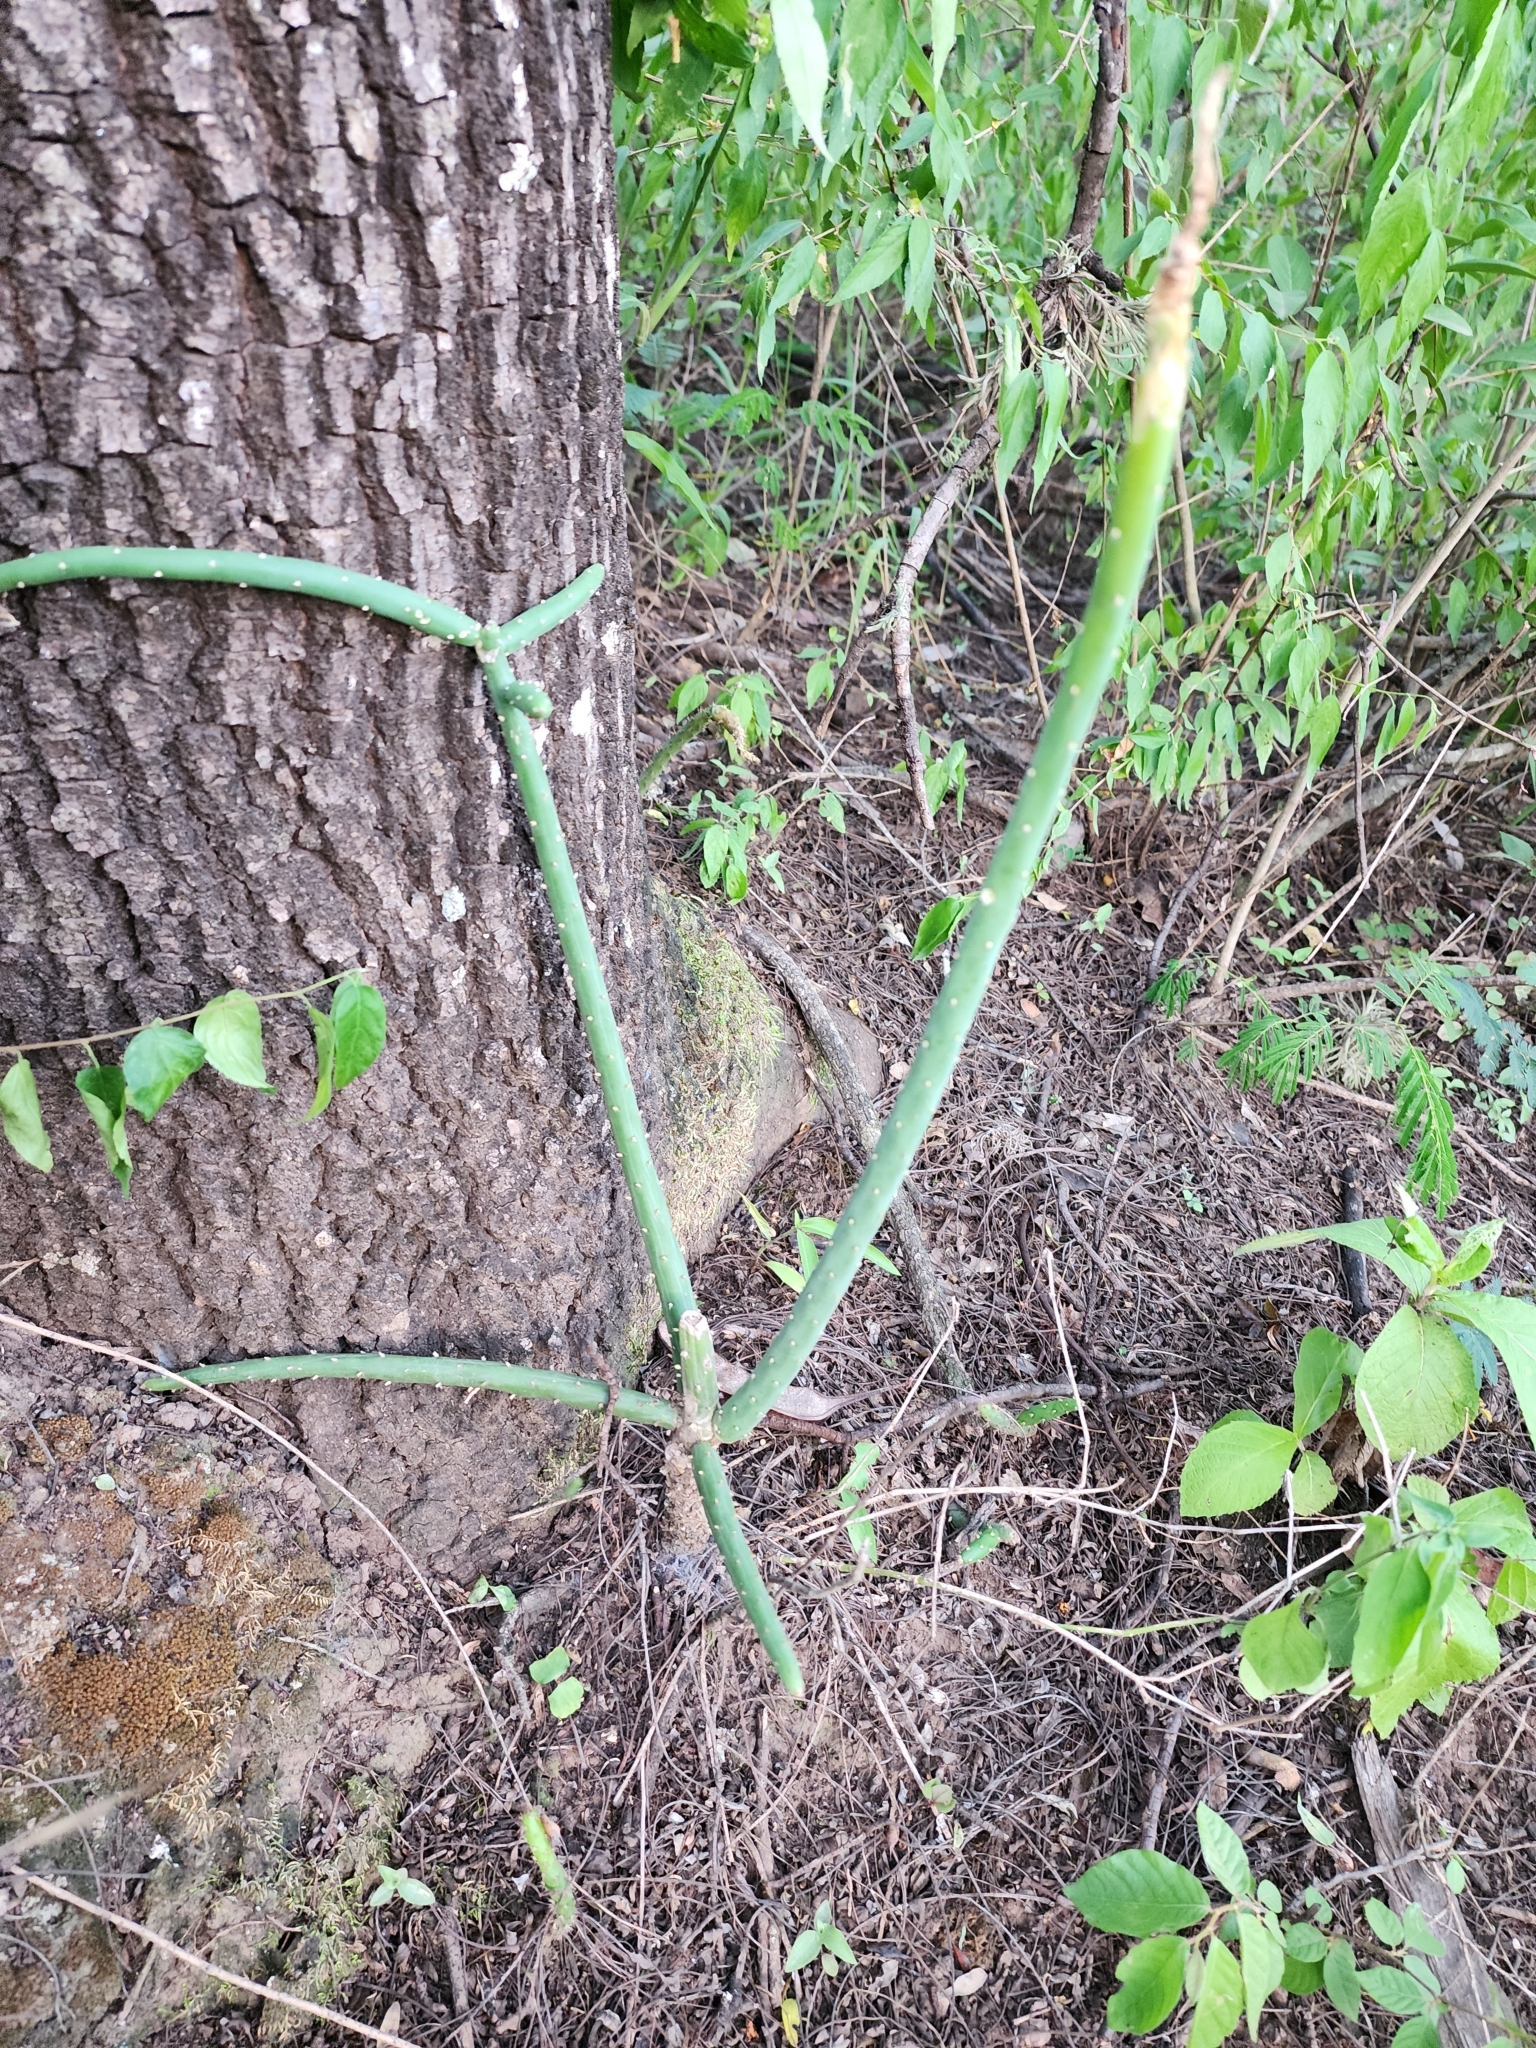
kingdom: Plantae
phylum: Tracheophyta
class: Magnoliopsida
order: Caryophyllales
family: Cactaceae
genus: Rhipsalis
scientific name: Rhipsalis floccosa
